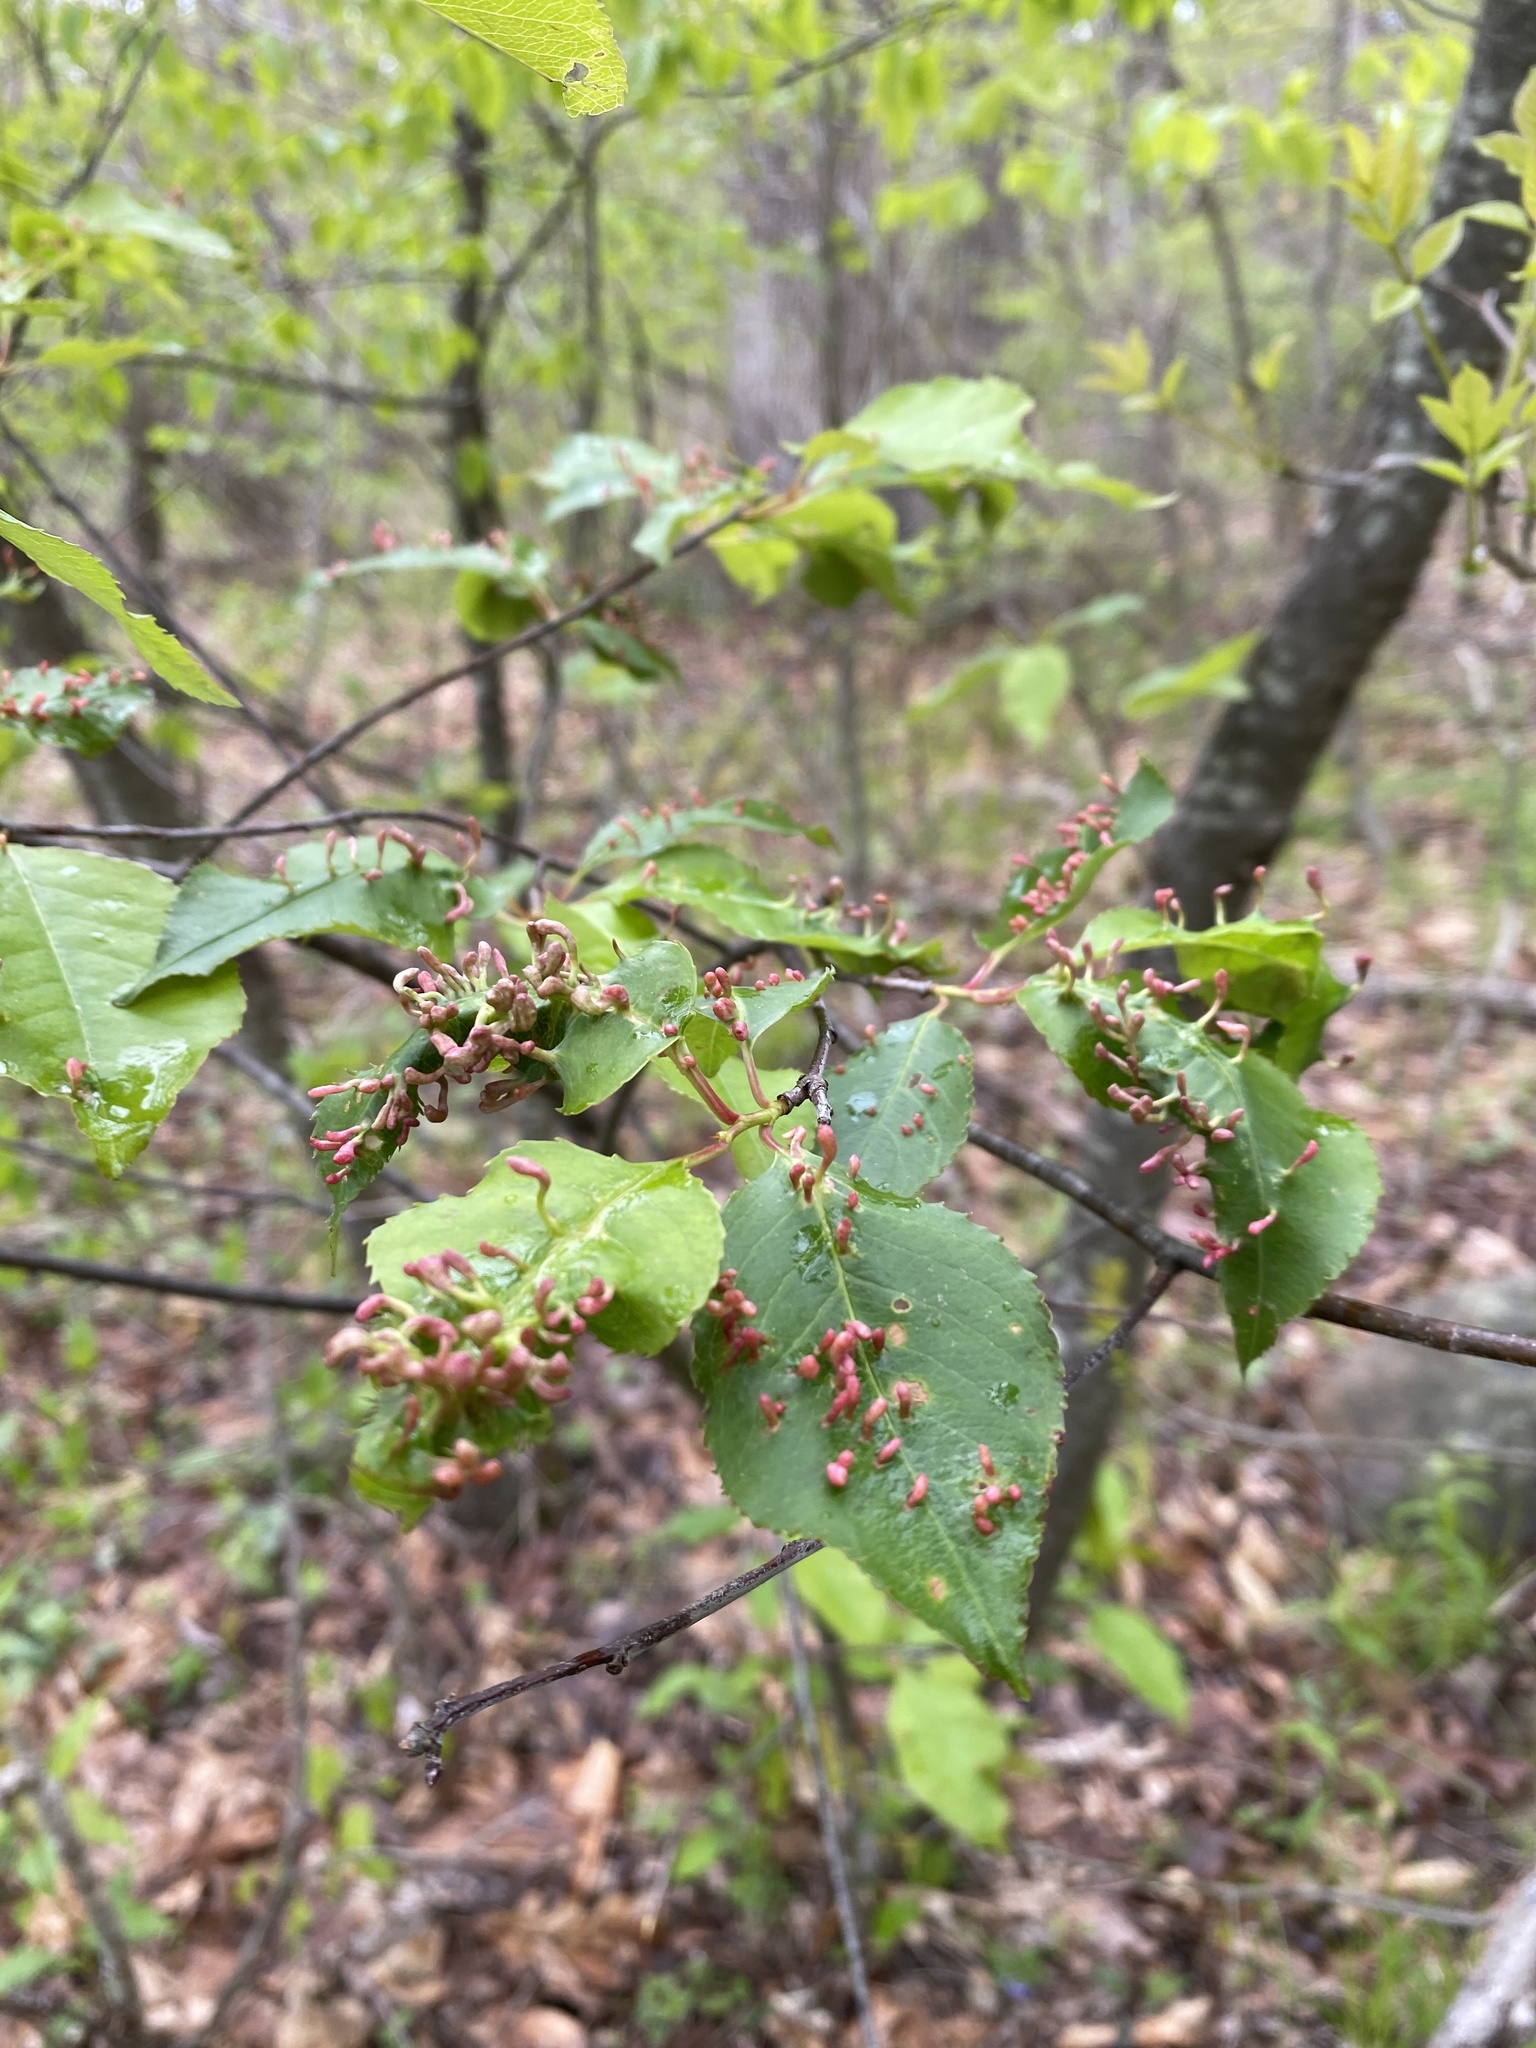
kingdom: Animalia
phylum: Arthropoda
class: Arachnida
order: Trombidiformes
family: Eriophyidae
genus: Eriophyes
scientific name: Eriophyes
